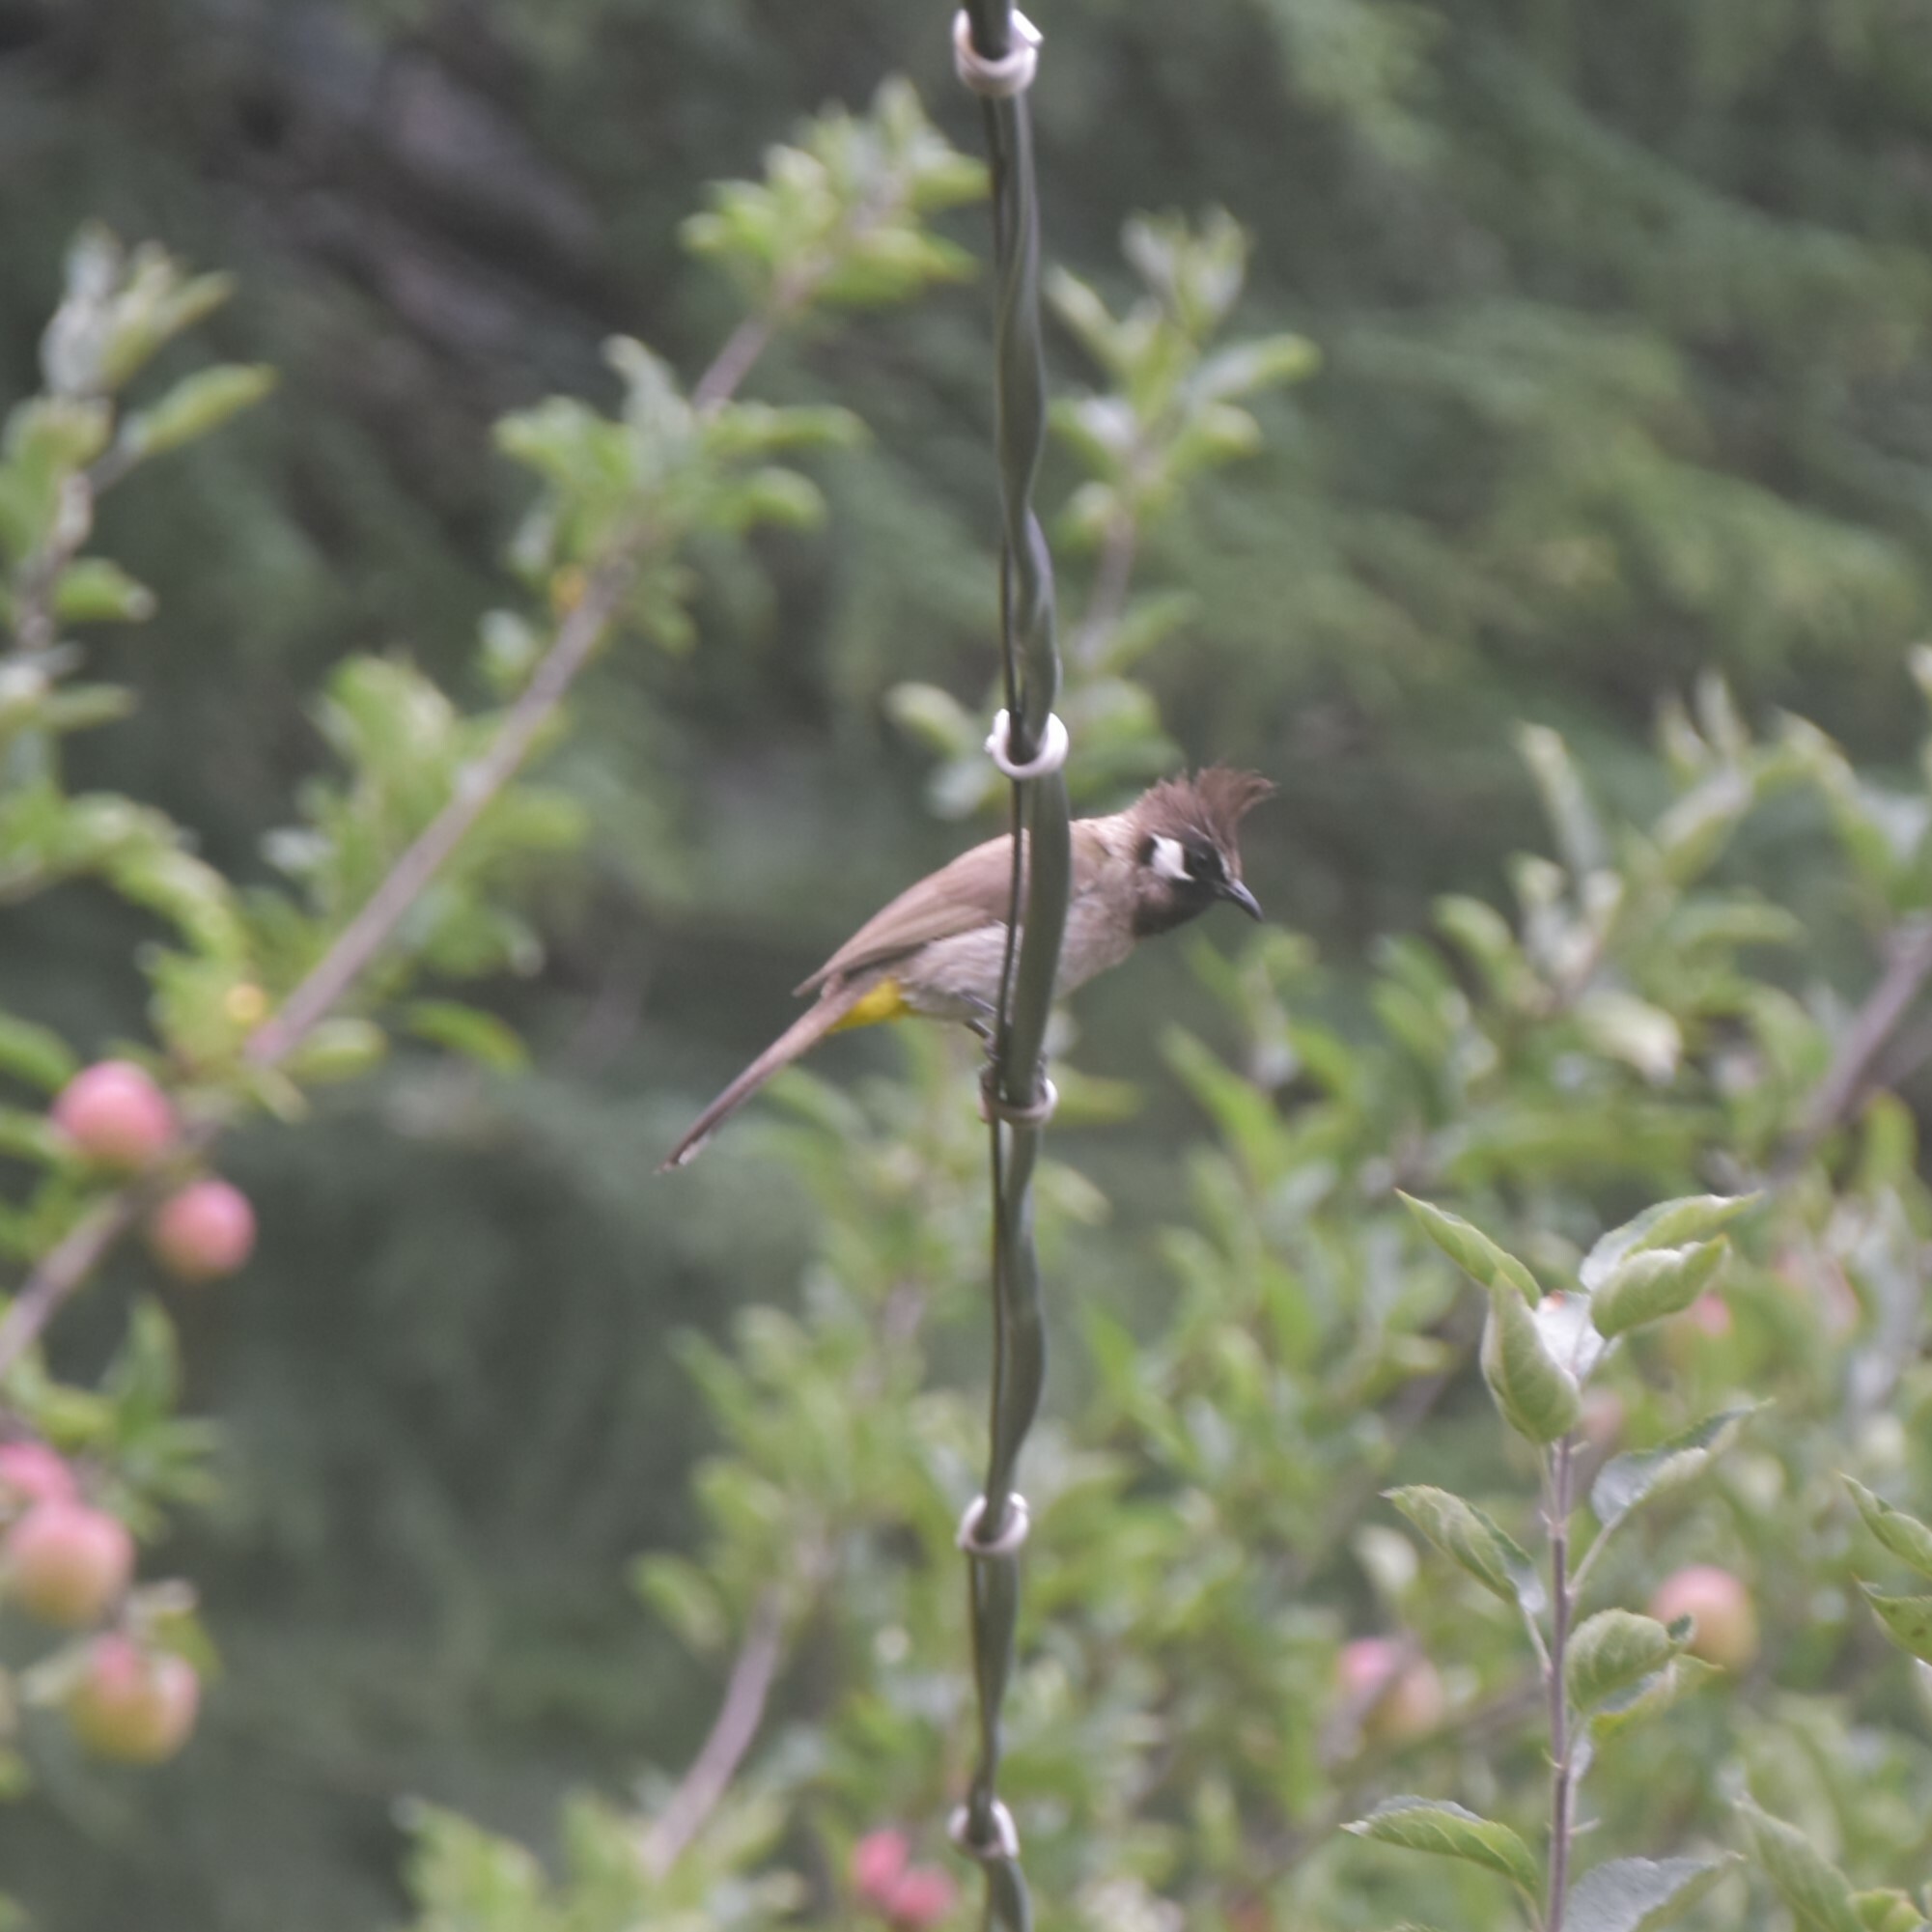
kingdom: Animalia
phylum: Chordata
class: Aves
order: Passeriformes
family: Pycnonotidae
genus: Pycnonotus
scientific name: Pycnonotus leucogenys
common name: Himalayan bulbul
